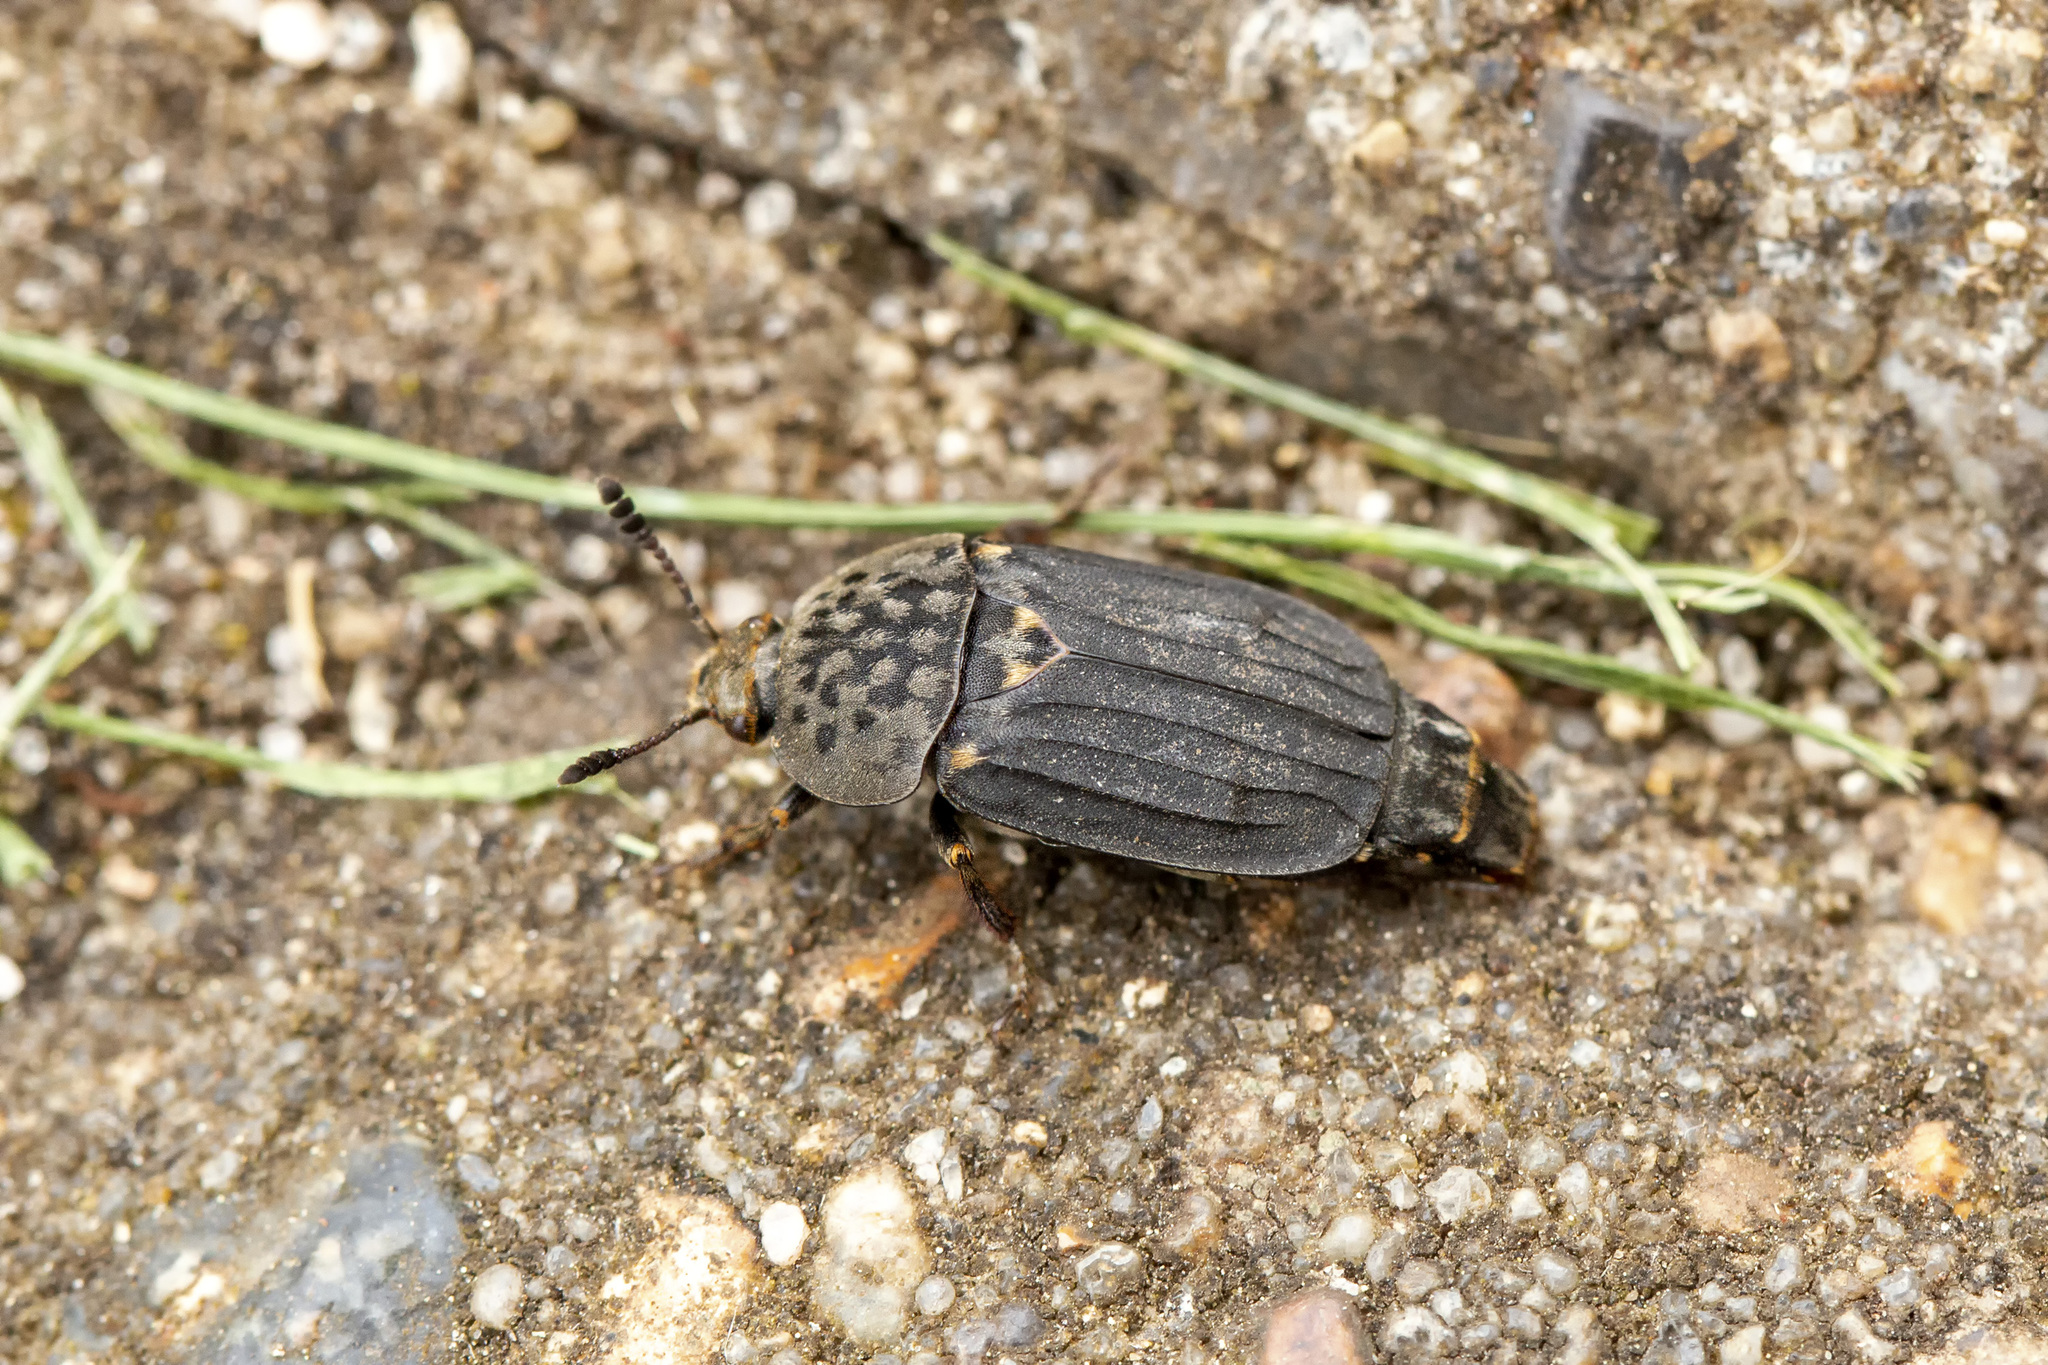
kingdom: Animalia
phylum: Arthropoda
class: Insecta
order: Coleoptera
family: Staphylinidae
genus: Thanatophilus
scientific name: Thanatophilus sinuatus
